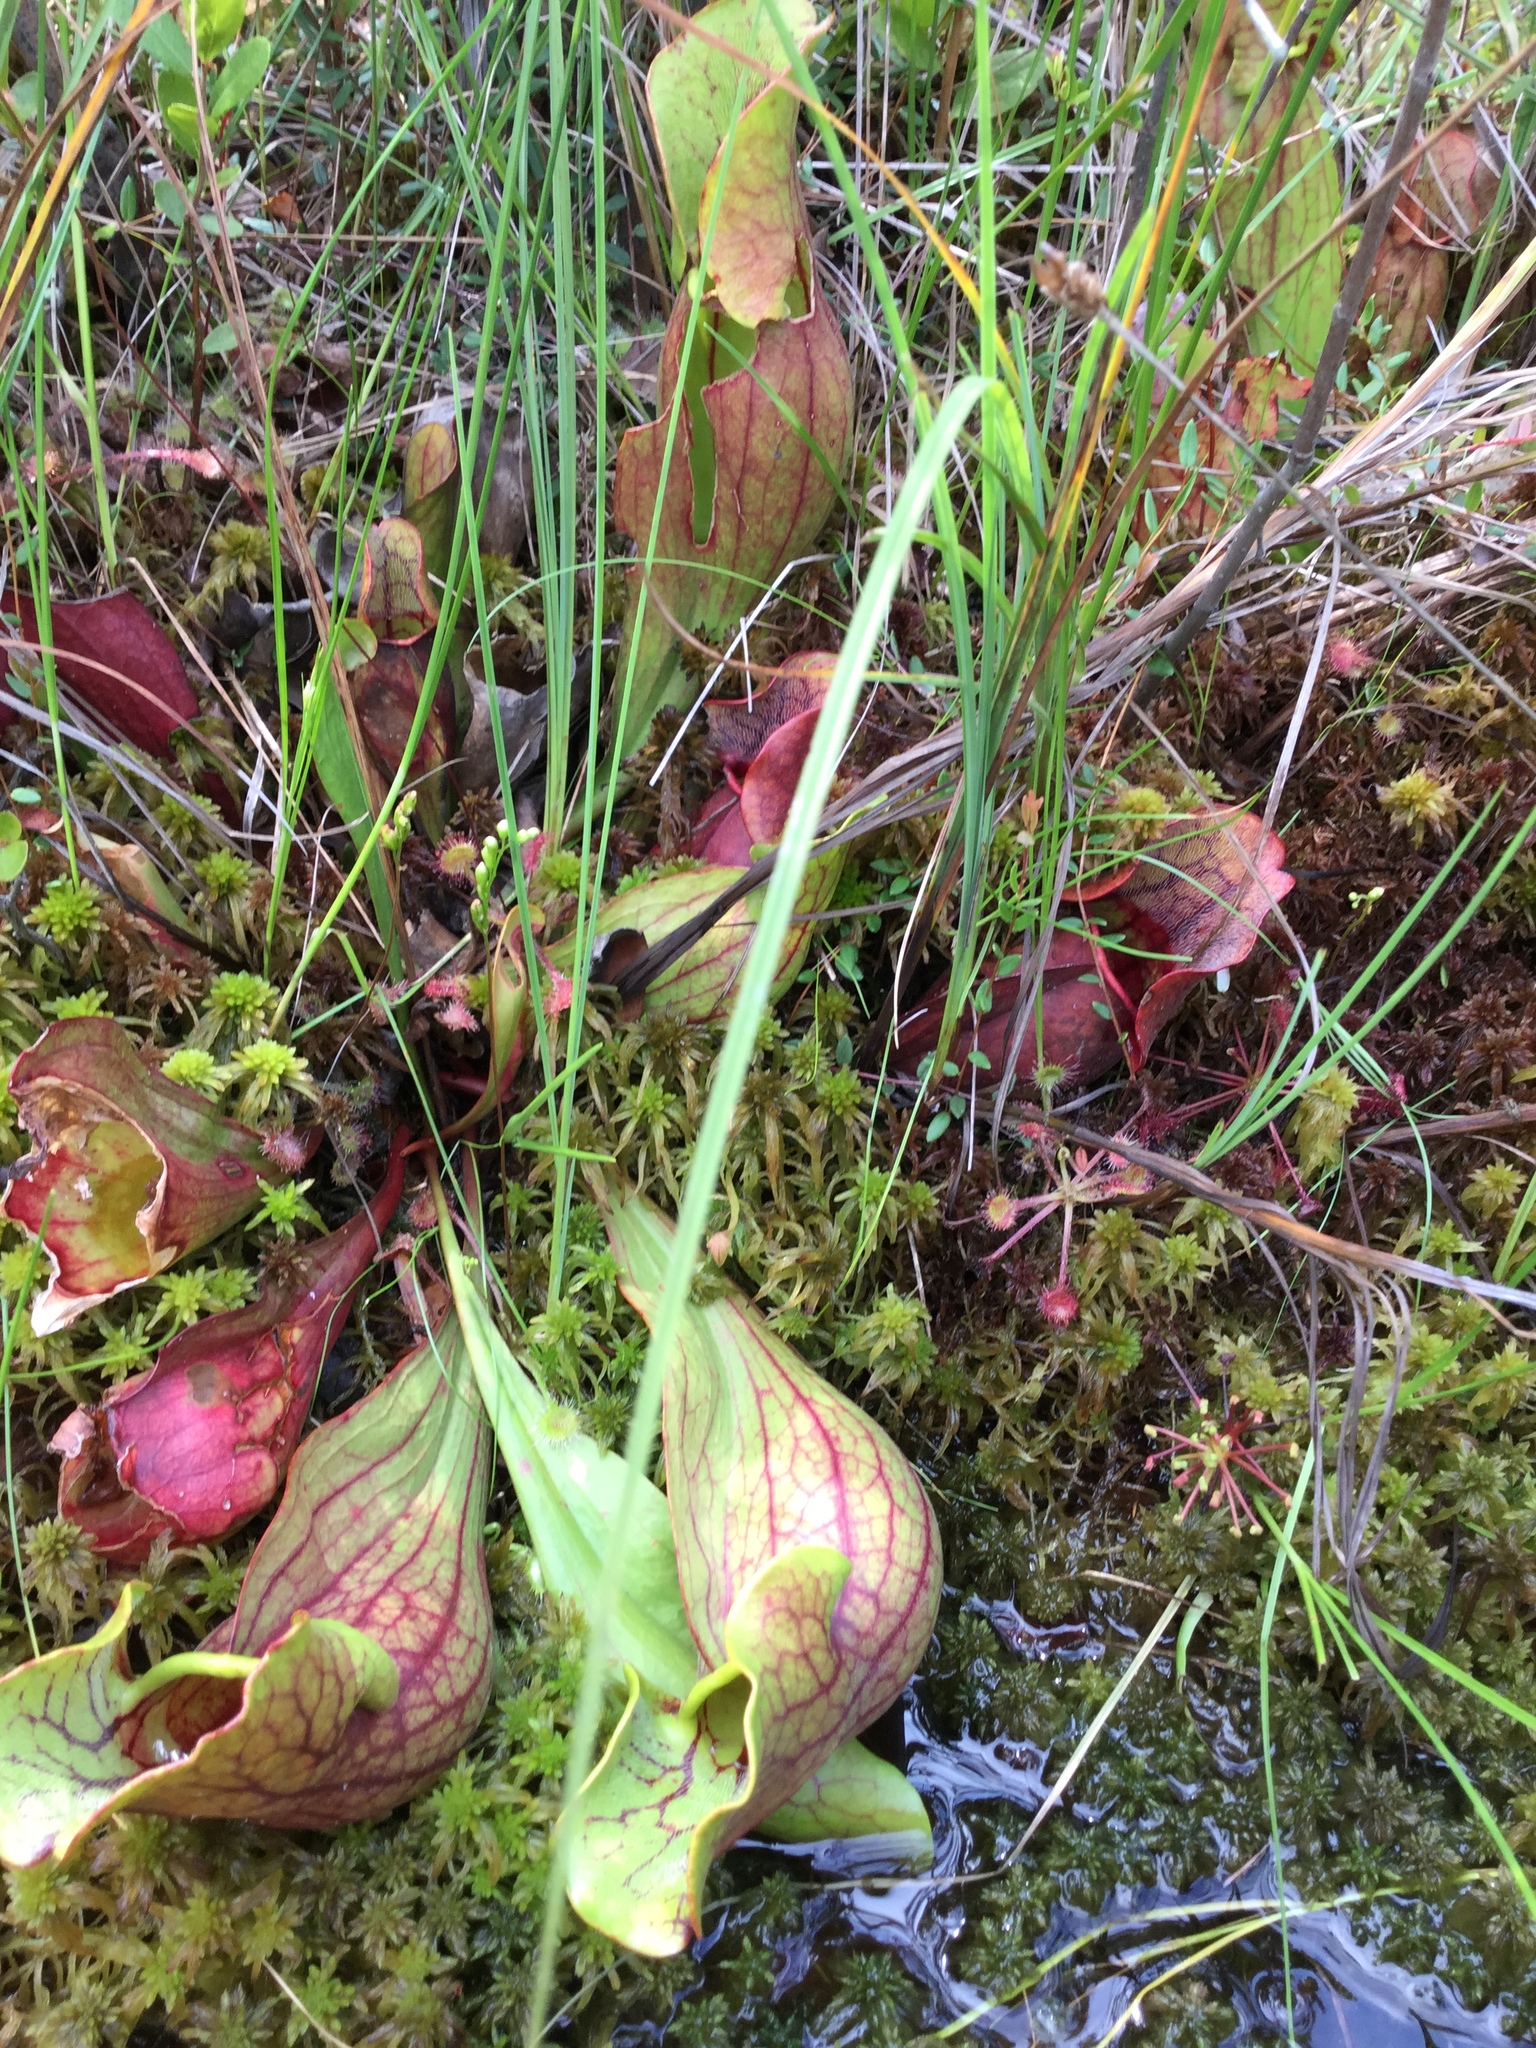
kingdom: Plantae
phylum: Tracheophyta
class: Magnoliopsida
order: Ericales
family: Sarraceniaceae
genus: Sarracenia
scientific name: Sarracenia purpurea
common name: Pitcherplant
